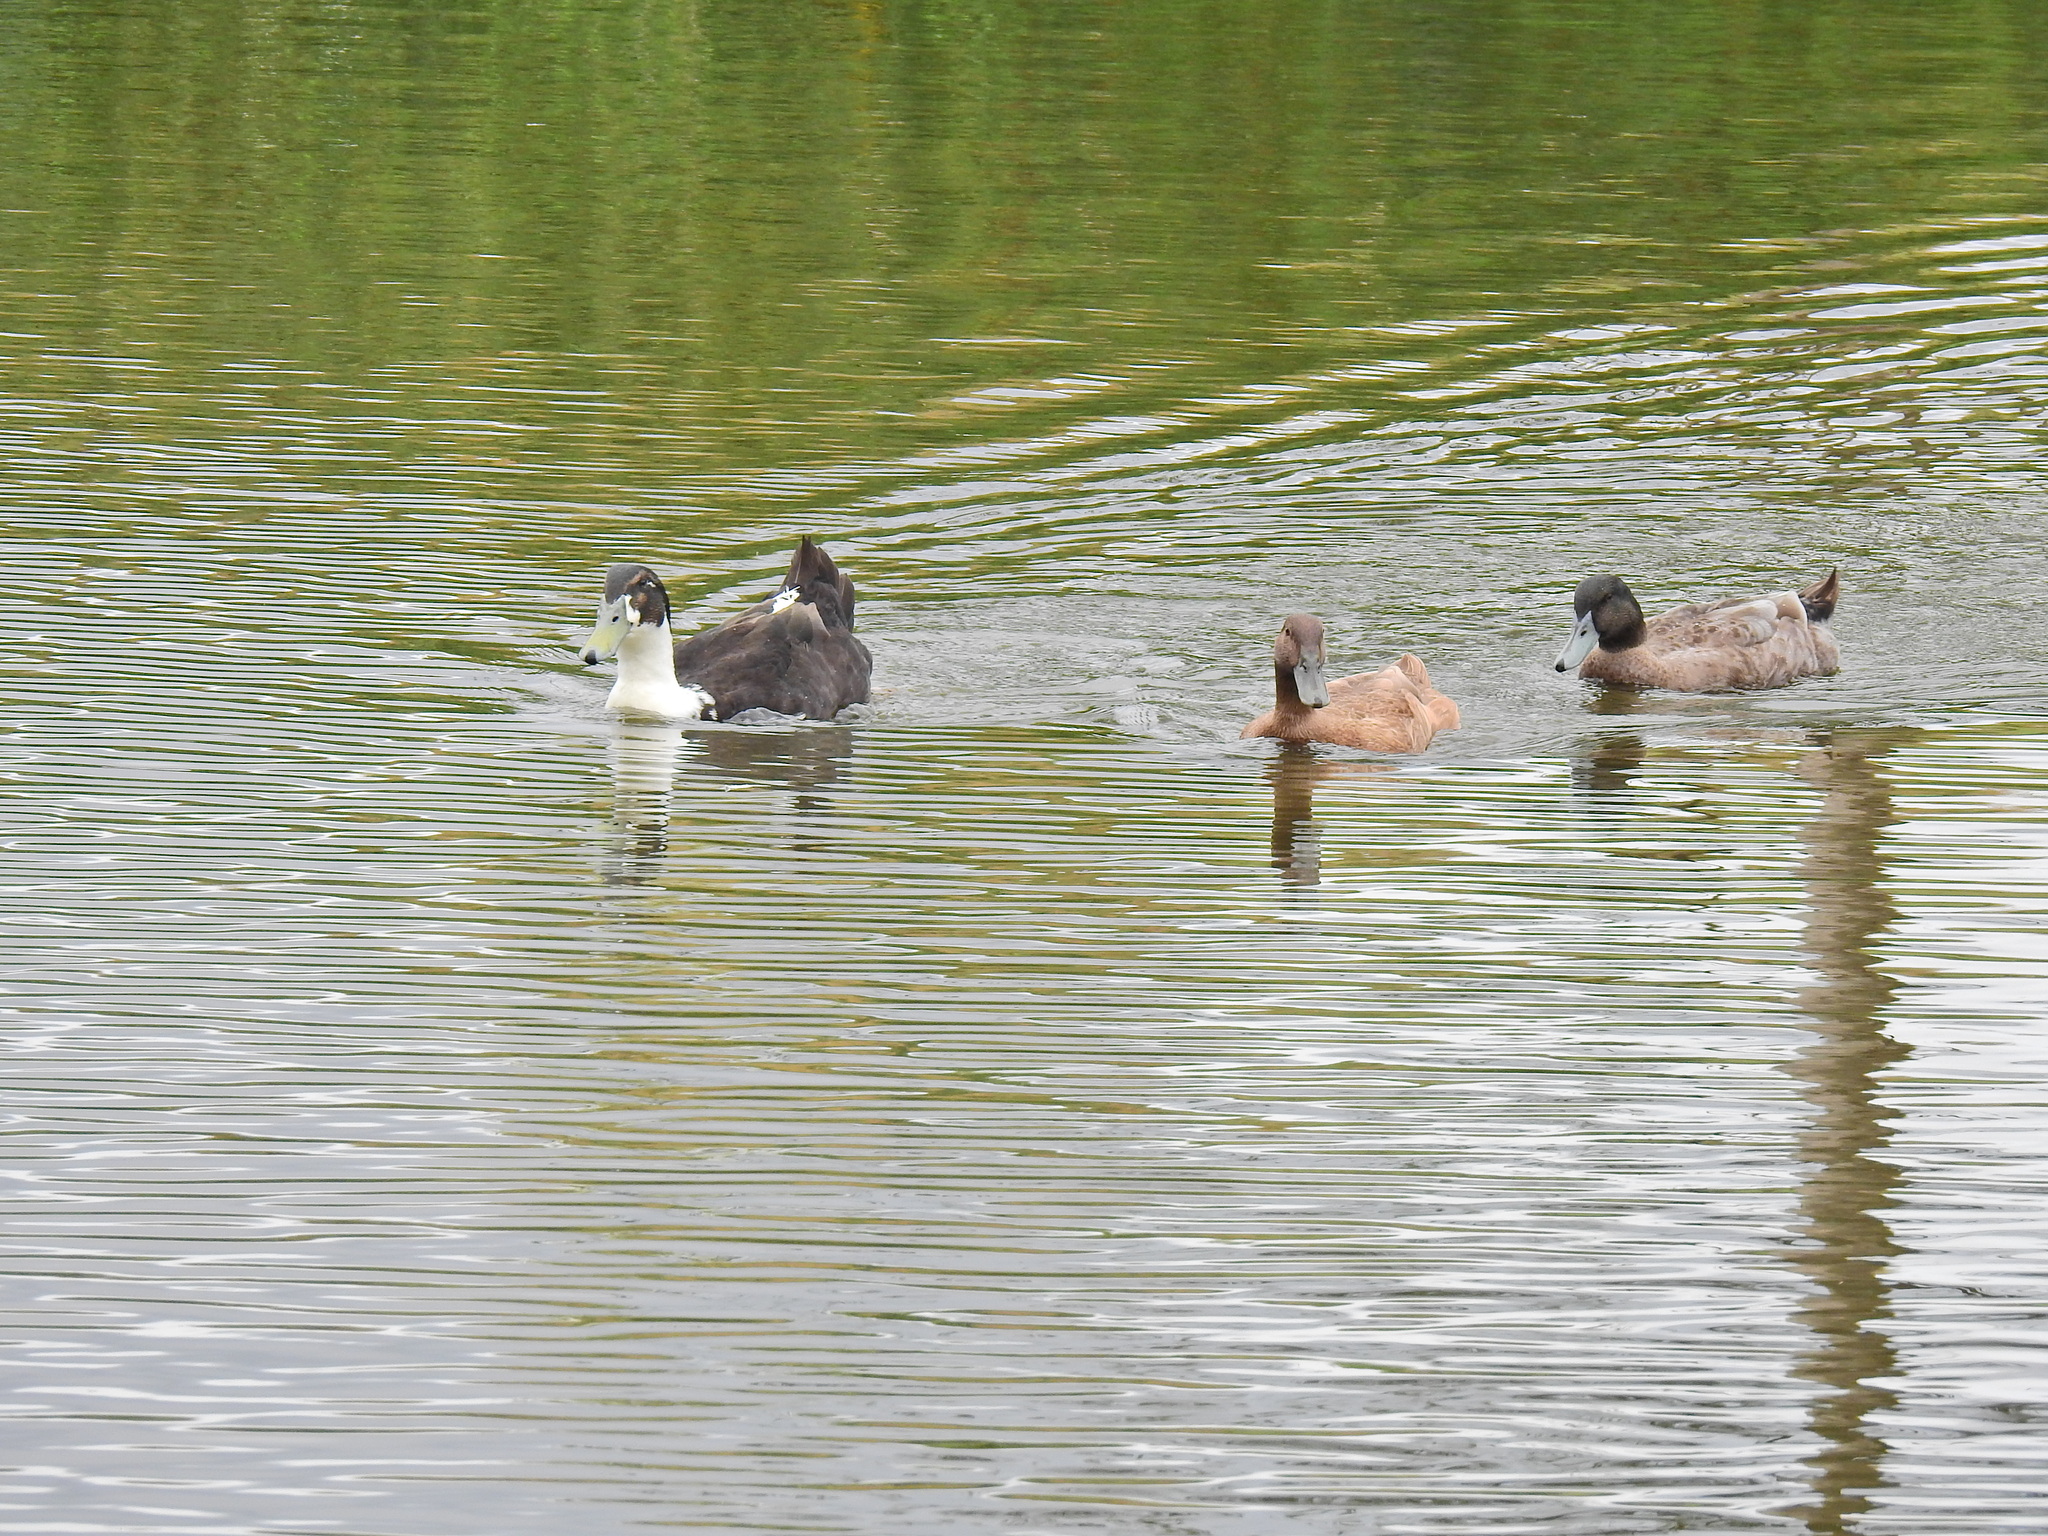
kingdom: Animalia
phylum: Chordata
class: Aves
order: Anseriformes
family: Anatidae
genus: Anas
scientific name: Anas platyrhynchos
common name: Mallard
